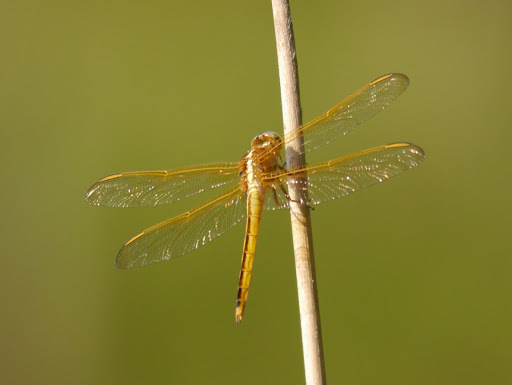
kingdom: Animalia
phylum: Arthropoda
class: Insecta
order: Odonata
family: Libellulidae
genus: Libellula
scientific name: Libellula needhami
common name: Needham's skimmer
